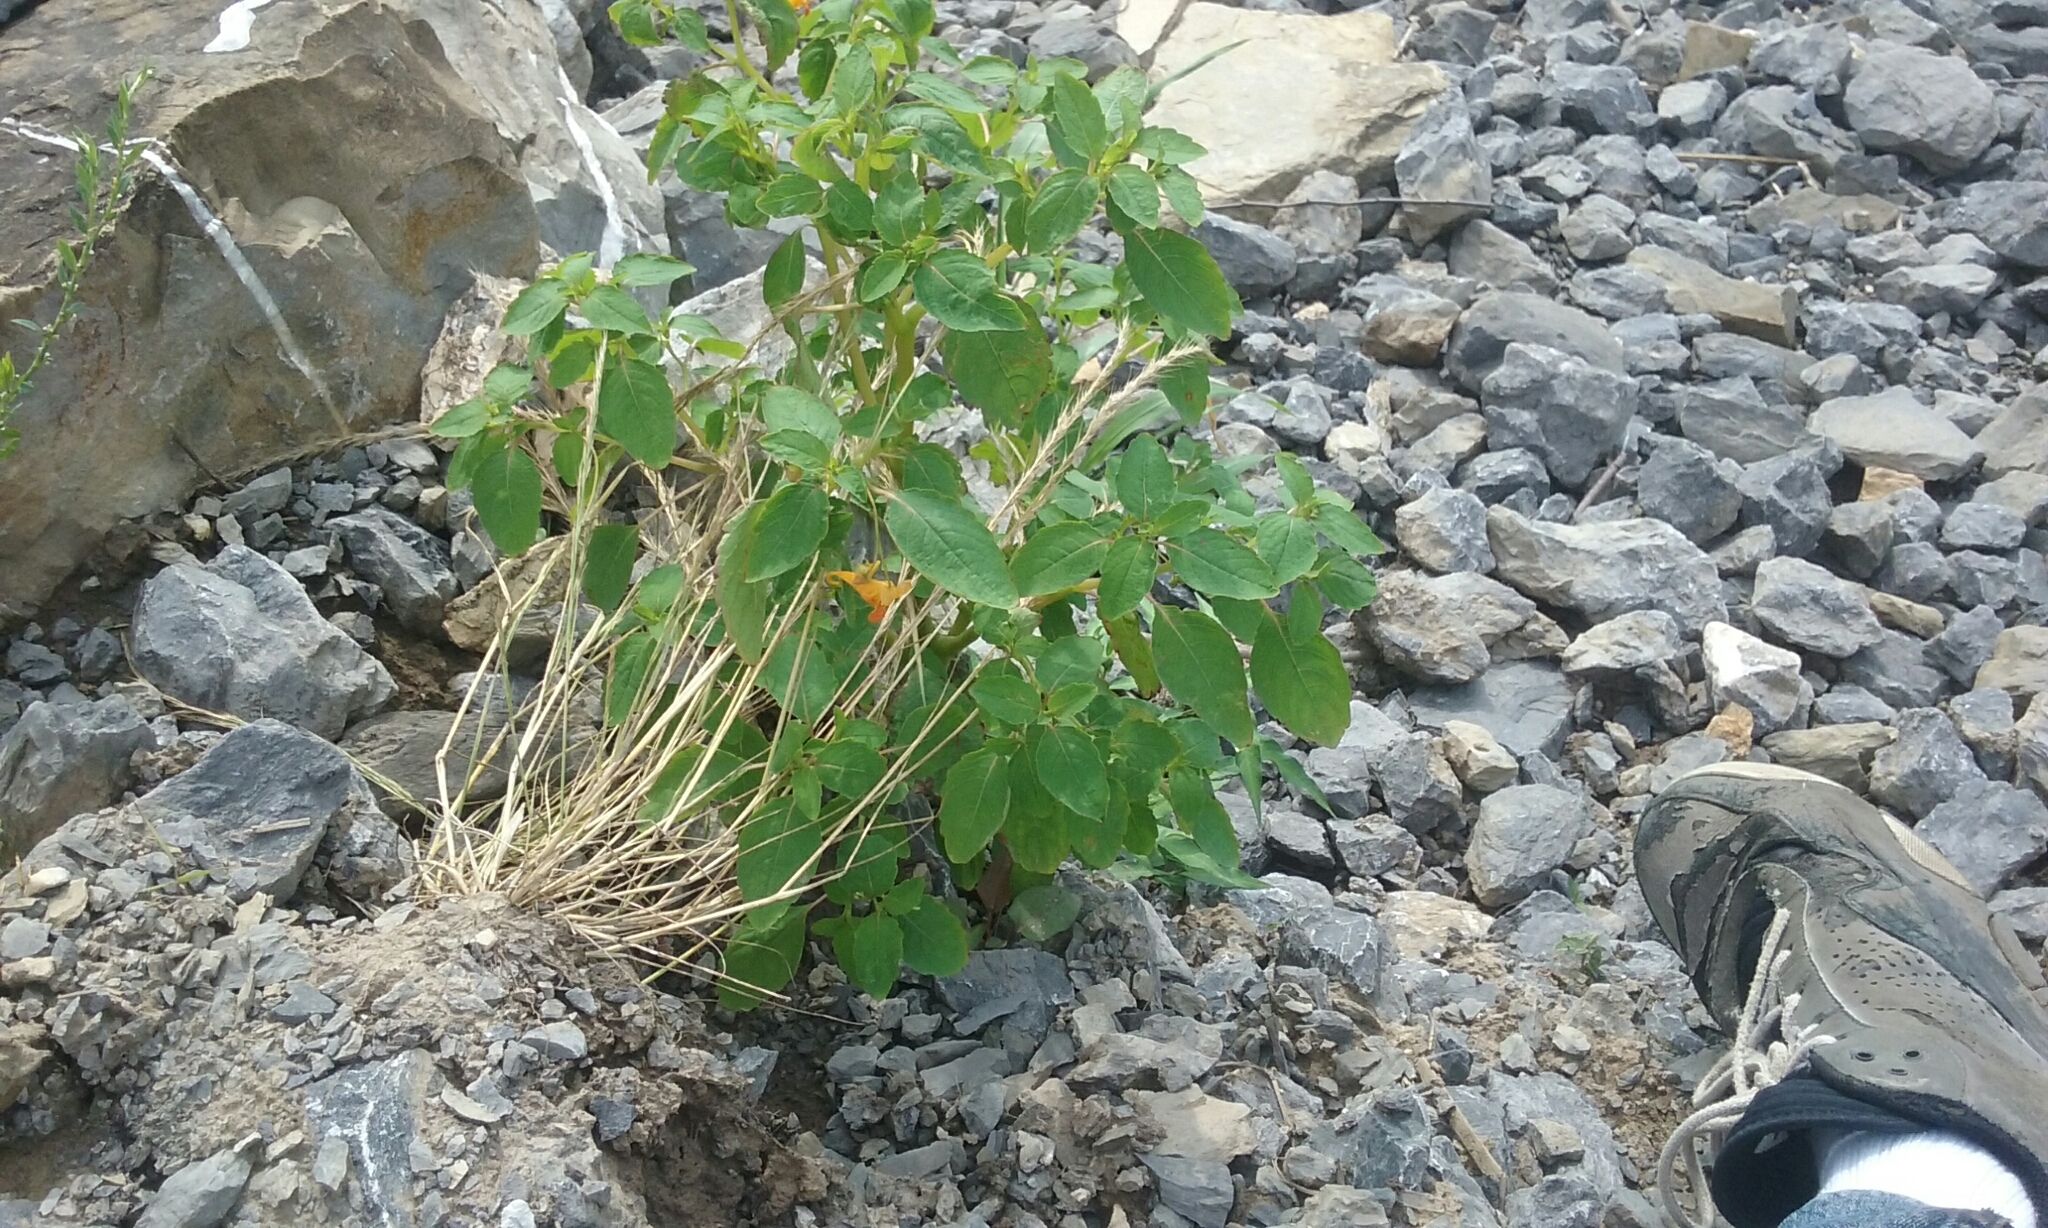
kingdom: Plantae
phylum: Tracheophyta
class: Magnoliopsida
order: Ericales
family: Balsaminaceae
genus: Impatiens
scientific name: Impatiens capensis
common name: Orange balsam
